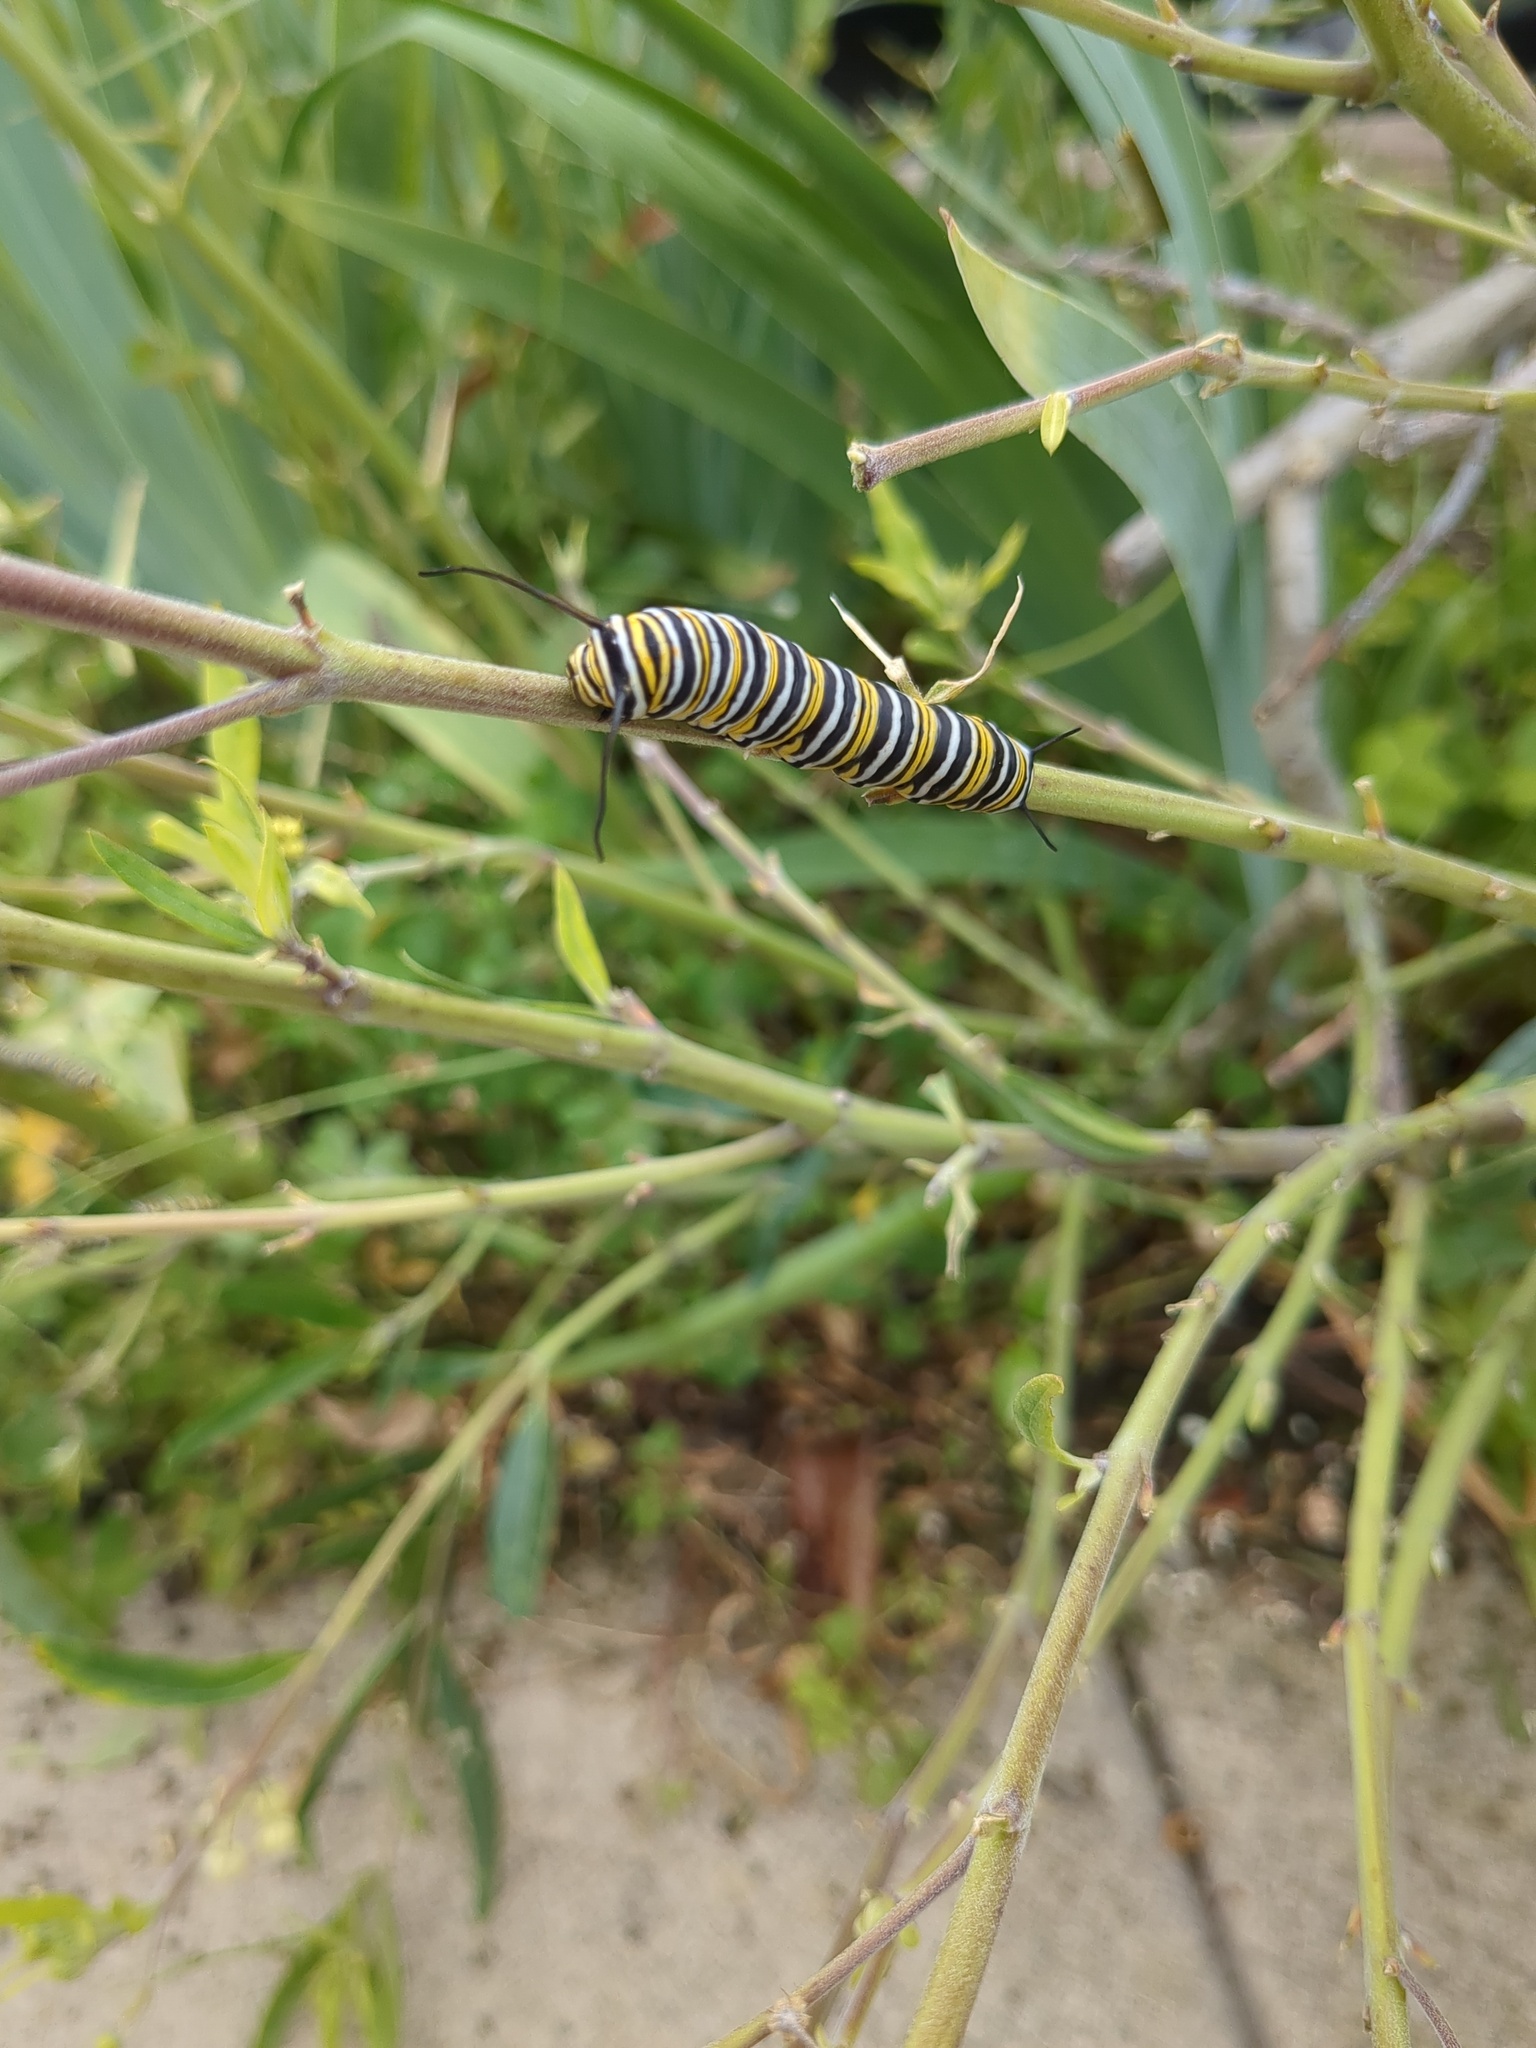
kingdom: Animalia
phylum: Arthropoda
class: Insecta
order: Lepidoptera
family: Nymphalidae
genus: Danaus
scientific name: Danaus plexippus
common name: Monarch
